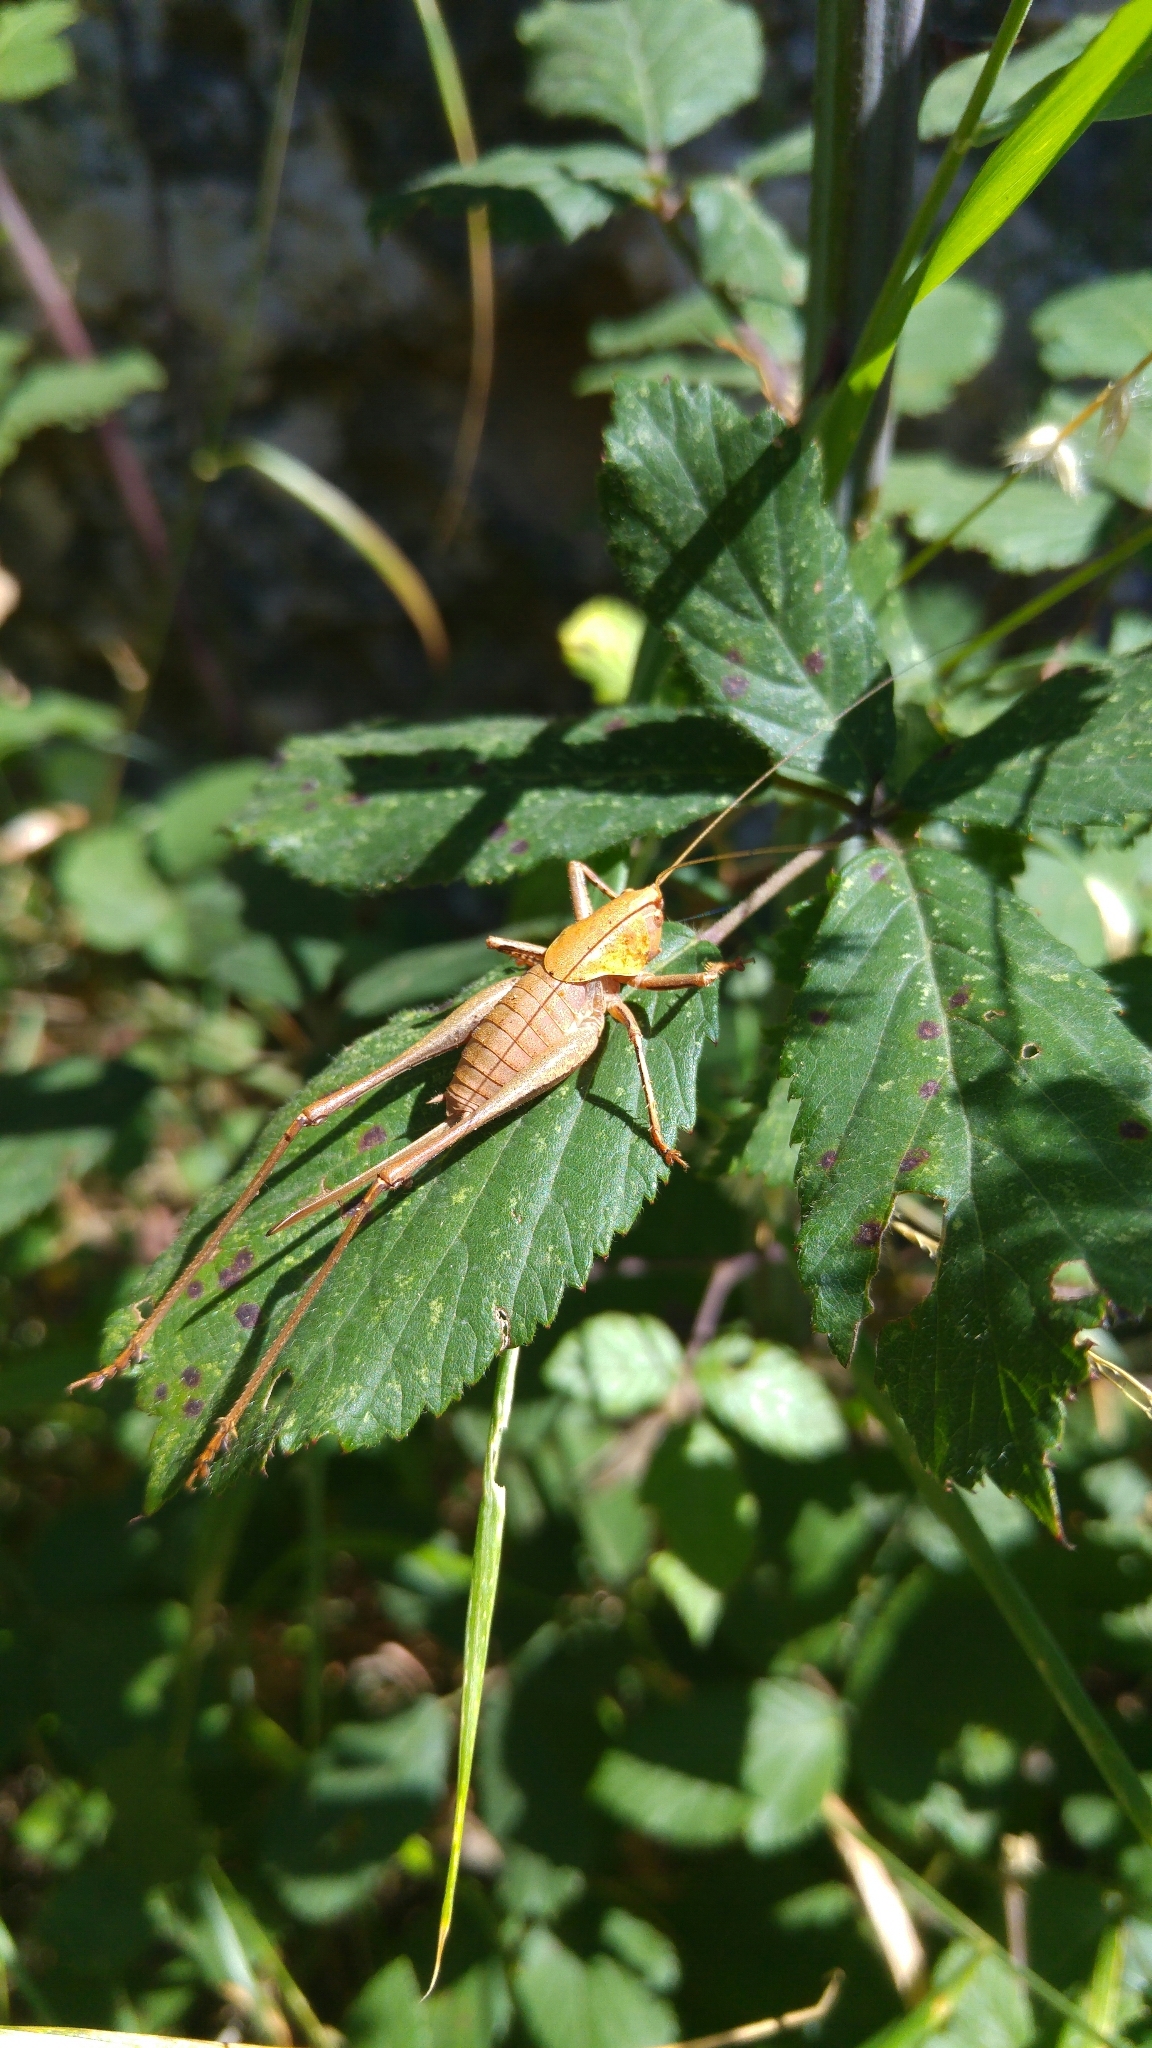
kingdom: Animalia
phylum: Arthropoda
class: Insecta
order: Orthoptera
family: Tettigoniidae
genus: Thyreonotus
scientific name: Thyreonotus corsicus
